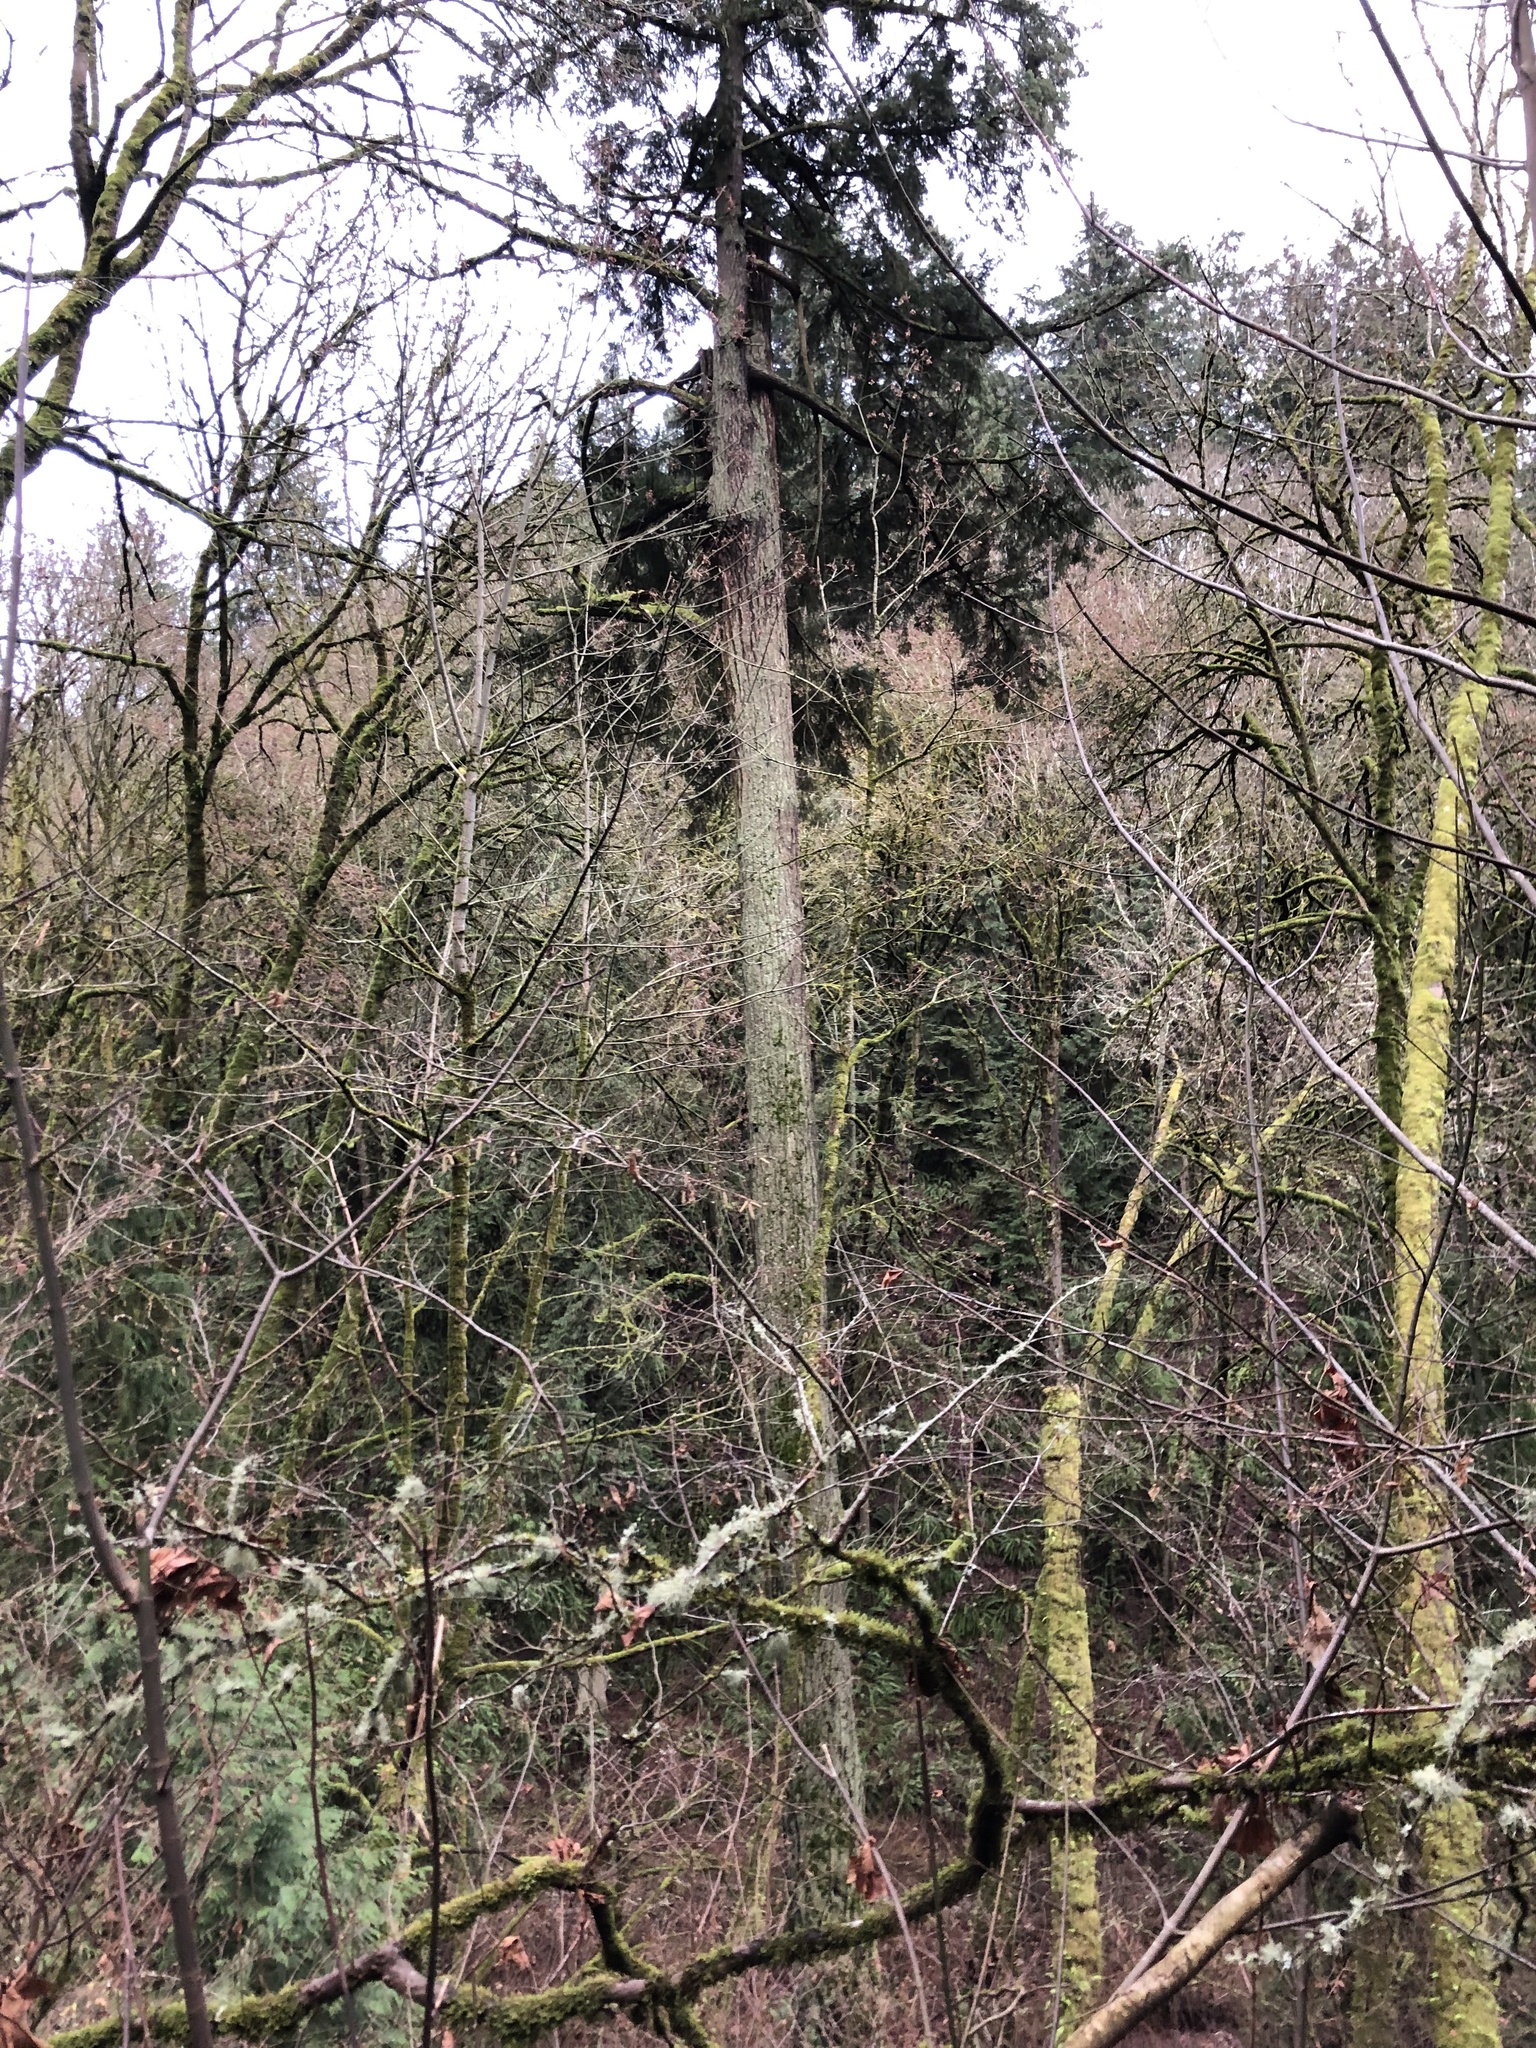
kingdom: Plantae
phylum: Tracheophyta
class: Pinopsida
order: Pinales
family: Pinaceae
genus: Pseudotsuga
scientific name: Pseudotsuga menziesii
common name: Douglas fir
